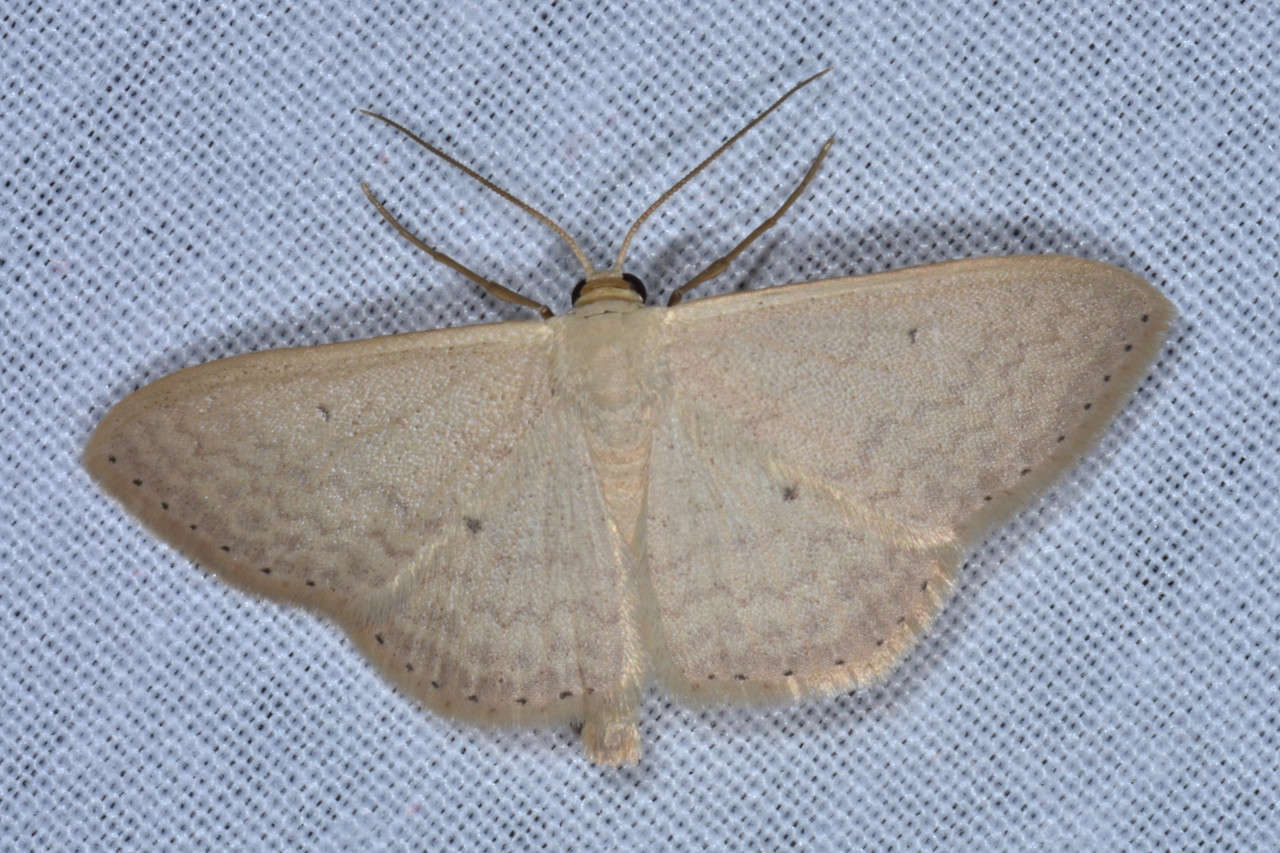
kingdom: Animalia
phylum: Arthropoda
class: Insecta
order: Lepidoptera
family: Geometridae
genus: Scopula
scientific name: Scopula optivata
